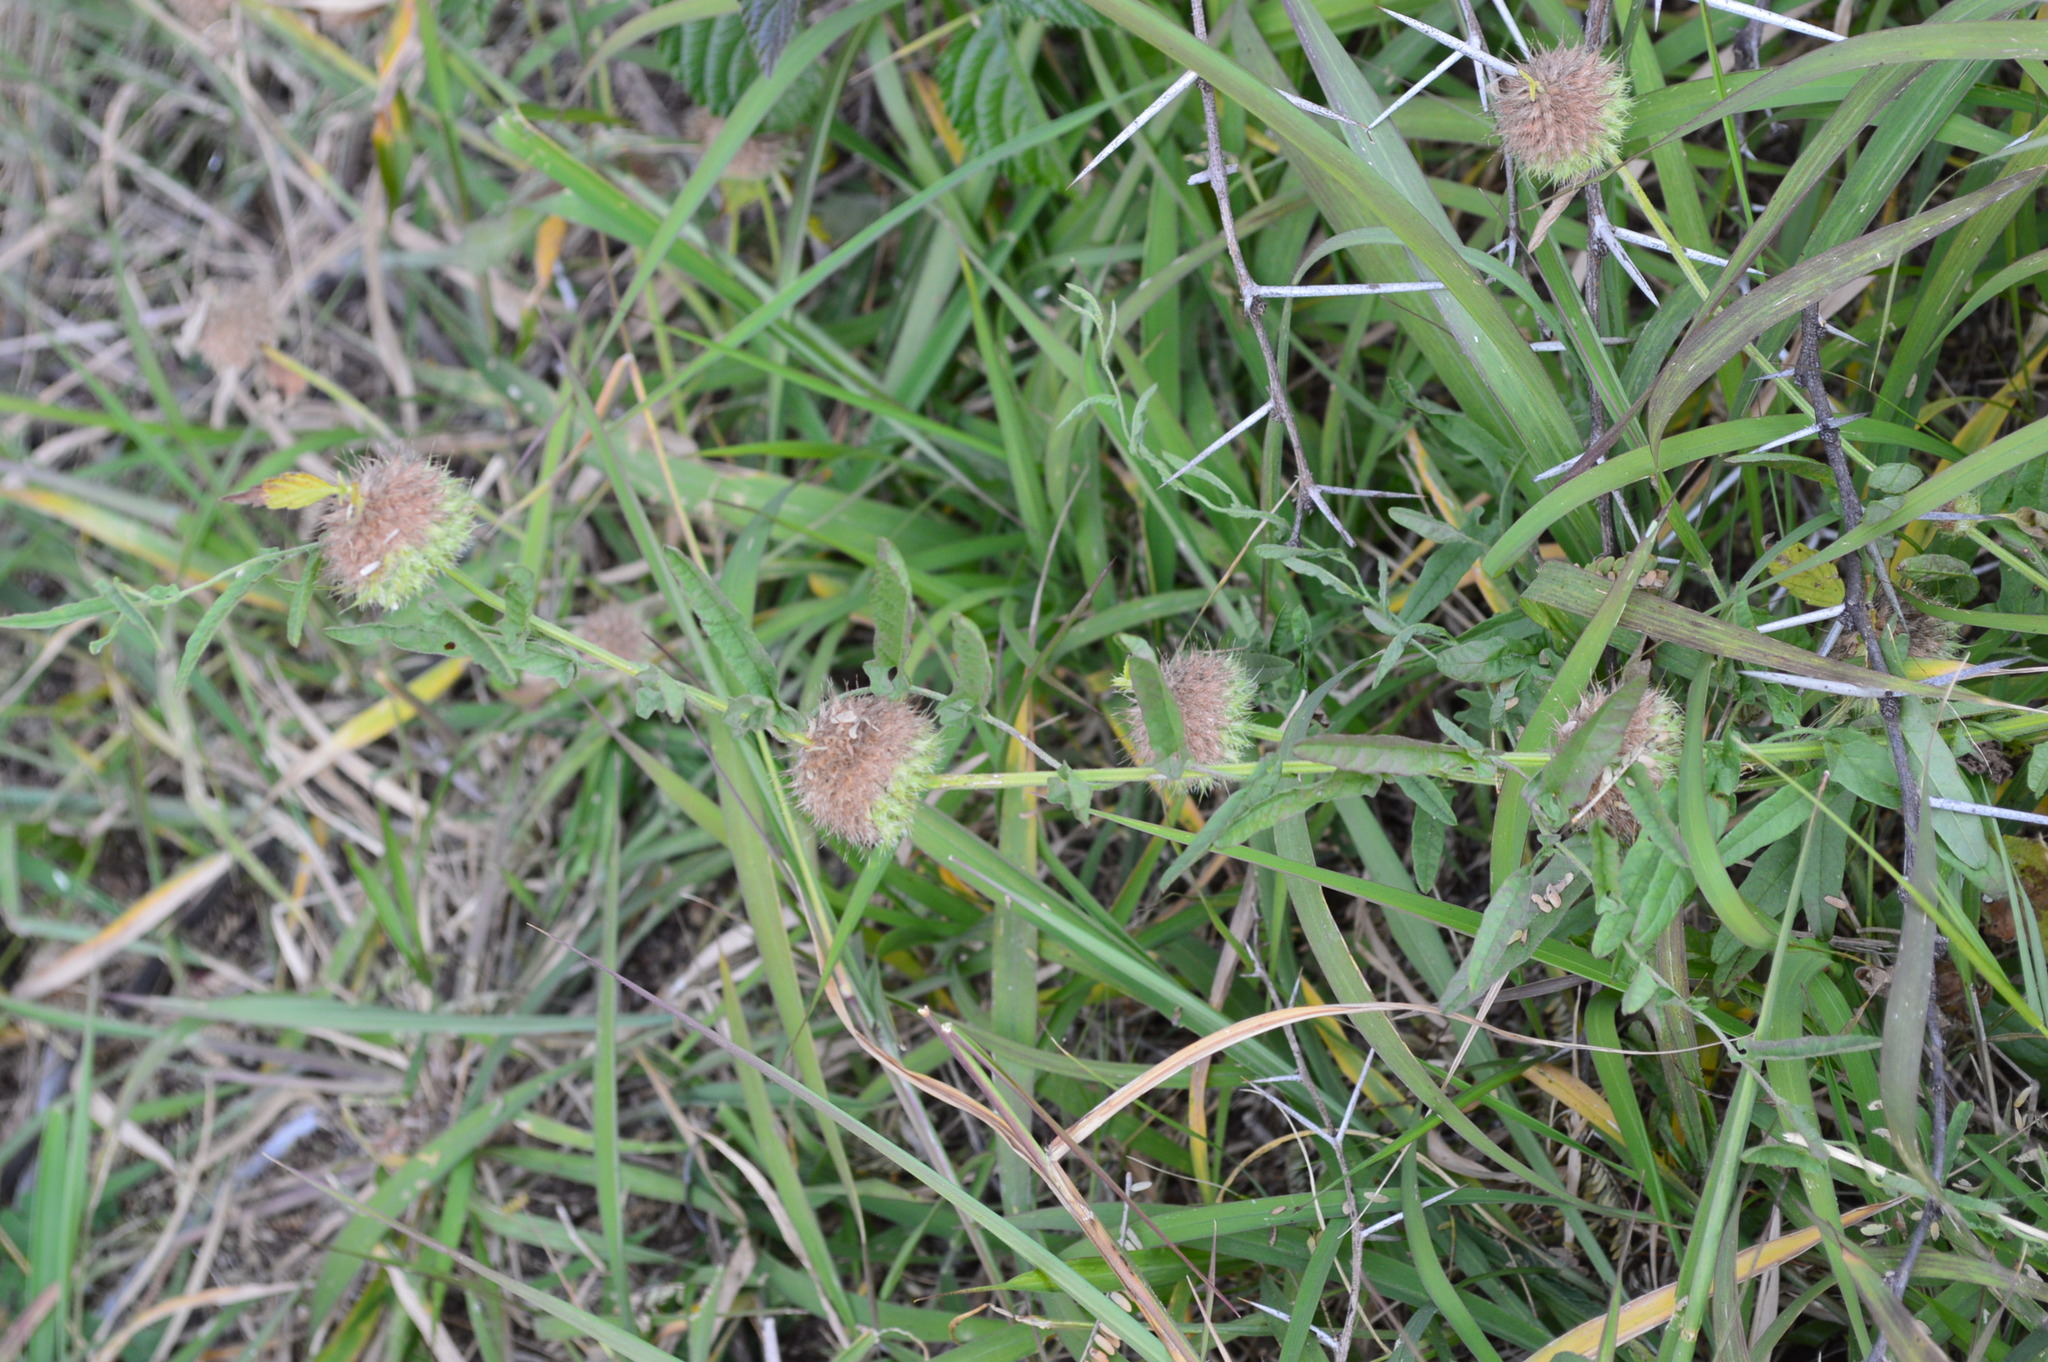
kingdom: Plantae
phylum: Tracheophyta
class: Magnoliopsida
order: Lamiales
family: Lamiaceae
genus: Leucas
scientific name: Leucas martinicensis
